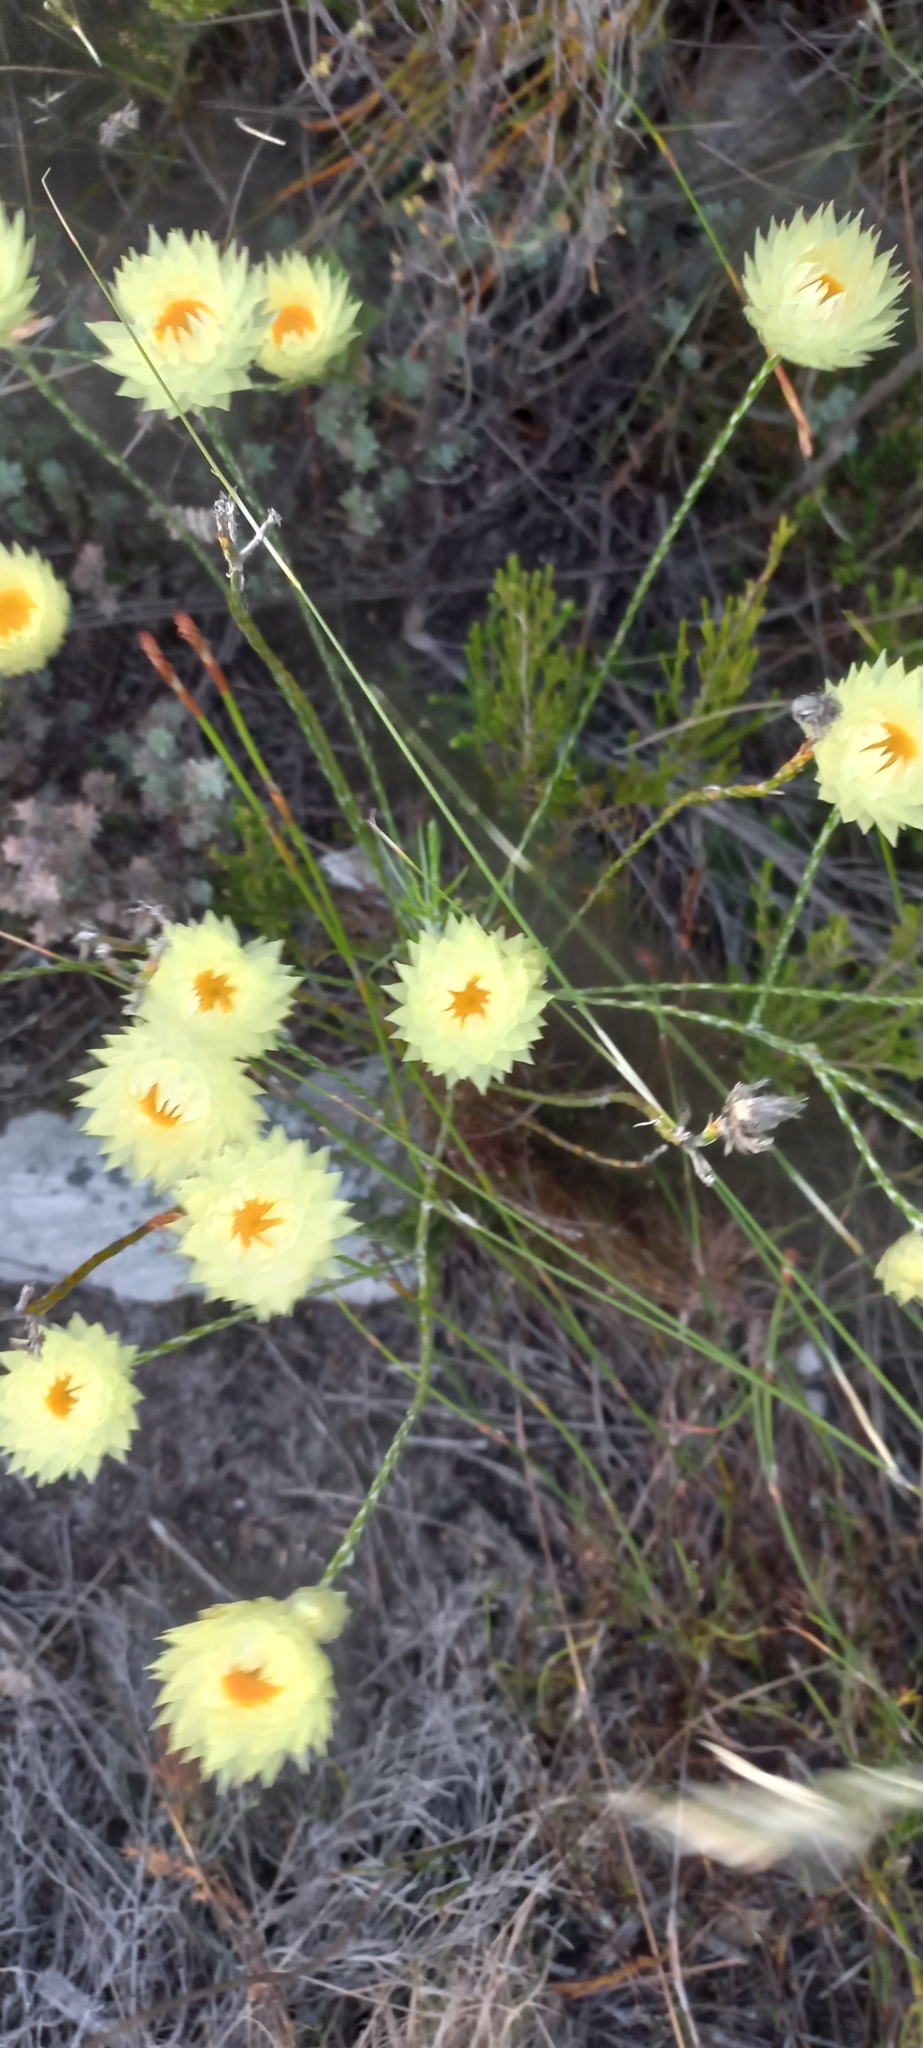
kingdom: Plantae
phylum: Tracheophyta
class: Magnoliopsida
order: Asterales
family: Asteraceae
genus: Edmondia
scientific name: Edmondia sesamoides
